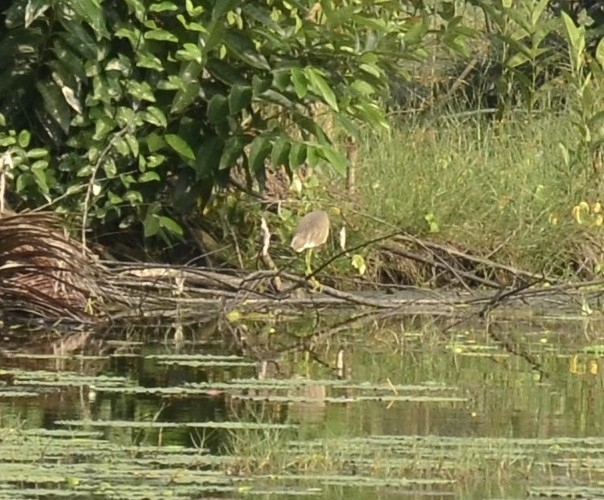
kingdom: Animalia
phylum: Chordata
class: Aves
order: Pelecaniformes
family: Ardeidae
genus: Ardeola
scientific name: Ardeola grayii
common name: Indian pond heron
